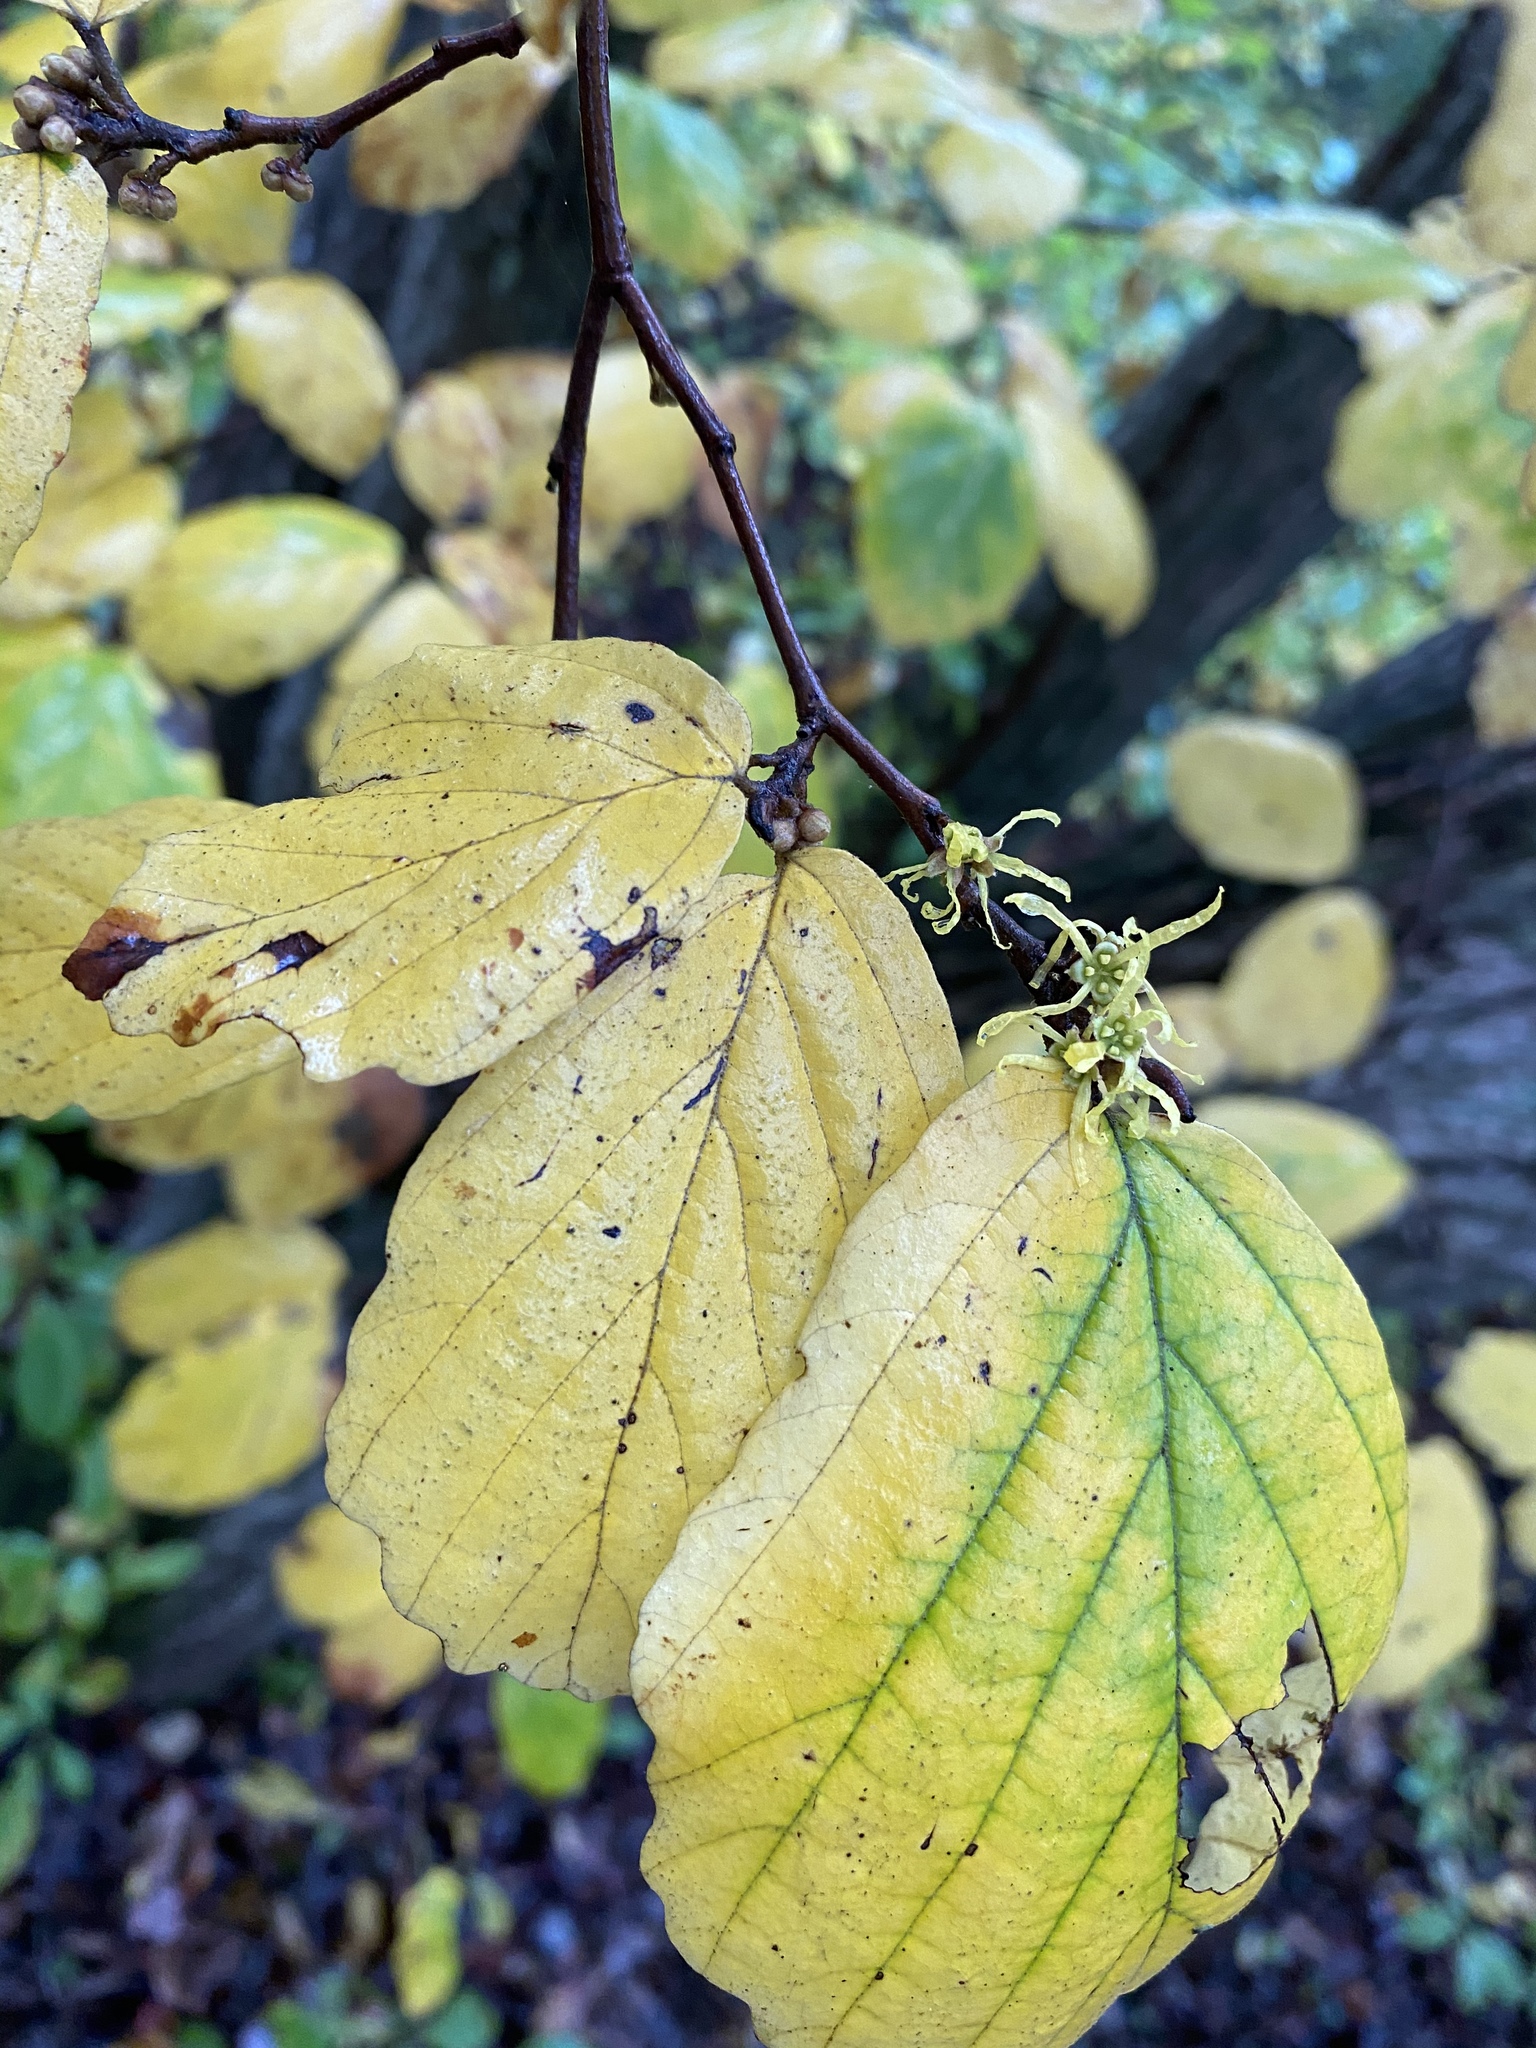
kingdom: Plantae
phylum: Tracheophyta
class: Magnoliopsida
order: Saxifragales
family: Hamamelidaceae
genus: Hamamelis
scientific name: Hamamelis virginiana
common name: Witch-hazel
